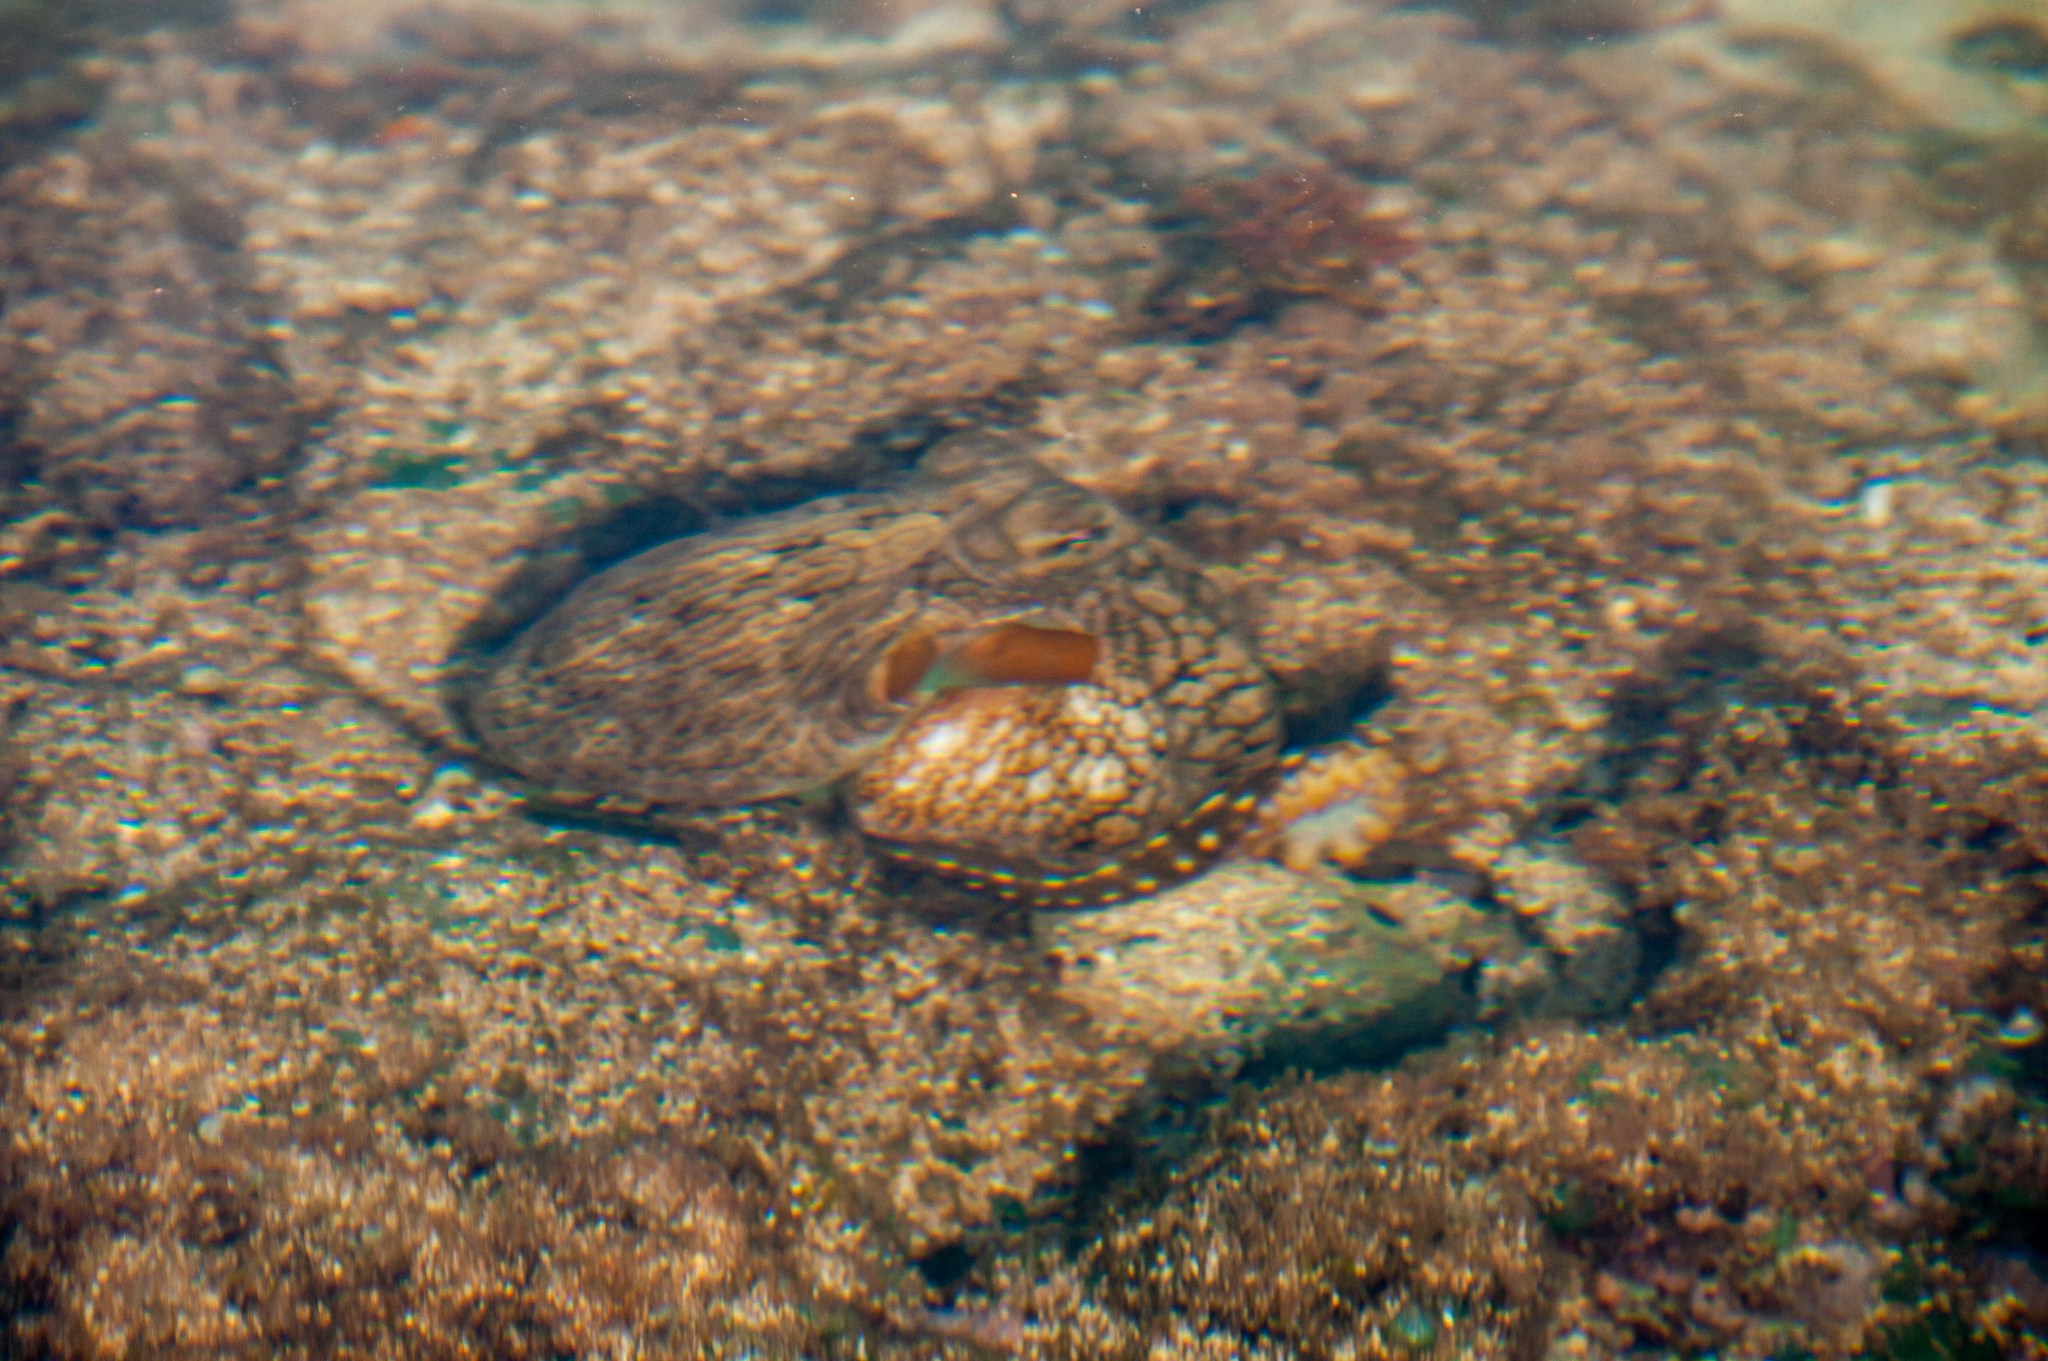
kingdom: Animalia
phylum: Mollusca
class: Cephalopoda
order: Octopoda
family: Octopodidae
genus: Octopus
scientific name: Octopus cyanea
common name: Cyane's octopus
